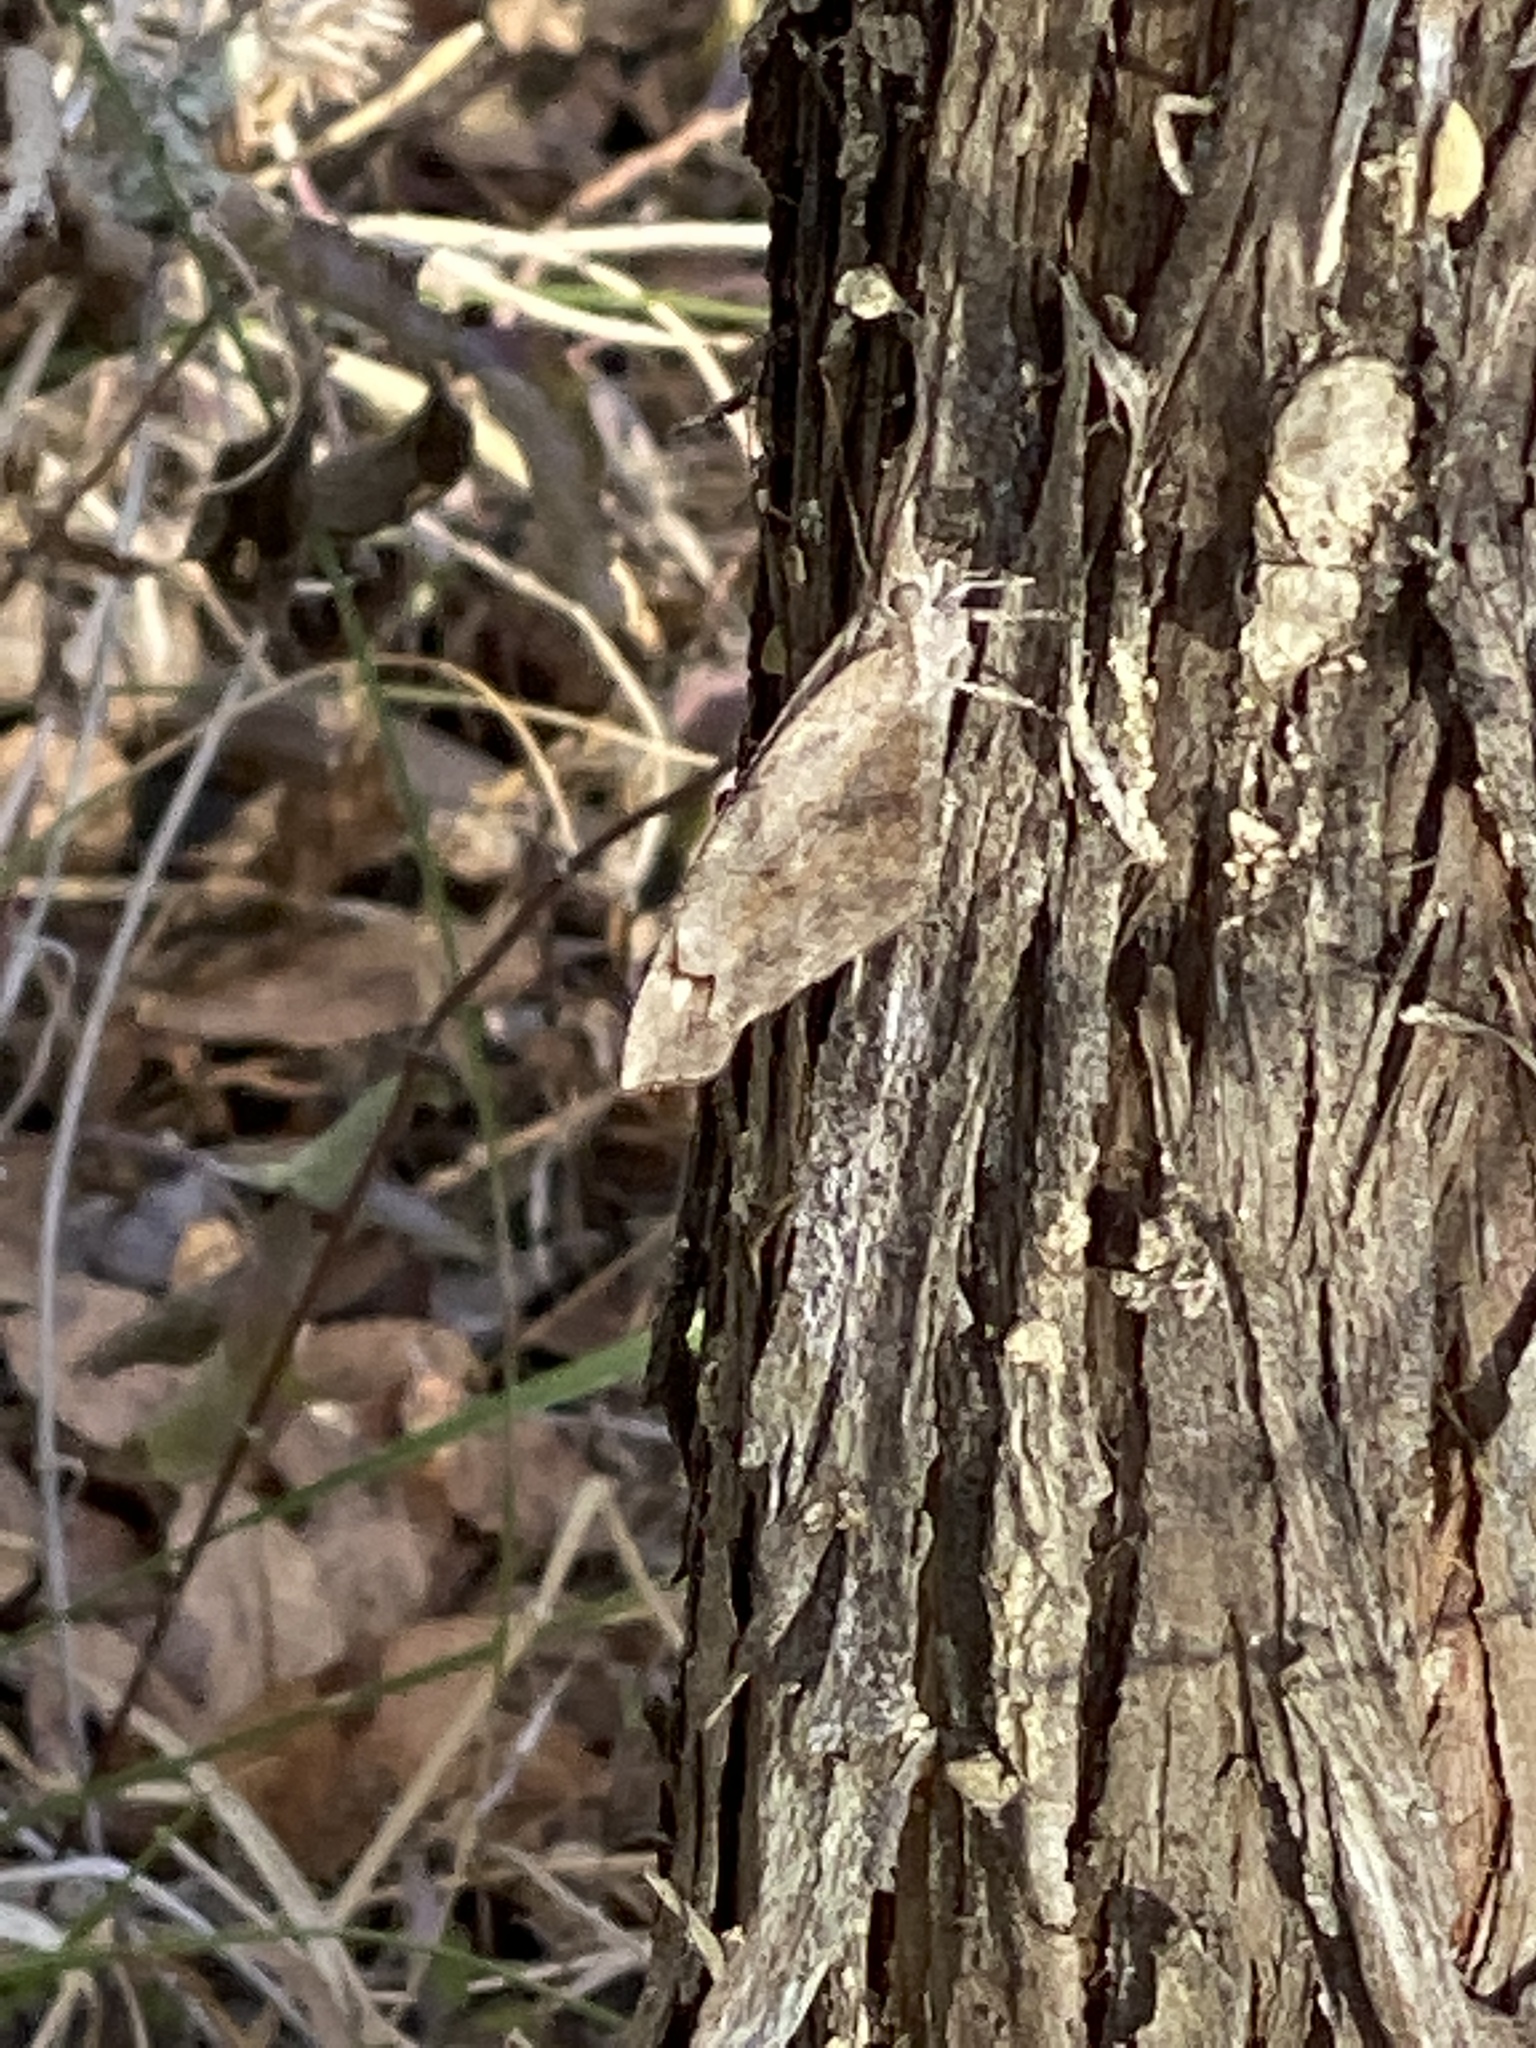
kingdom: Animalia
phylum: Arthropoda
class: Insecta
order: Lepidoptera
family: Nymphalidae
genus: Libytheana
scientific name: Libytheana carinenta
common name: American snout
